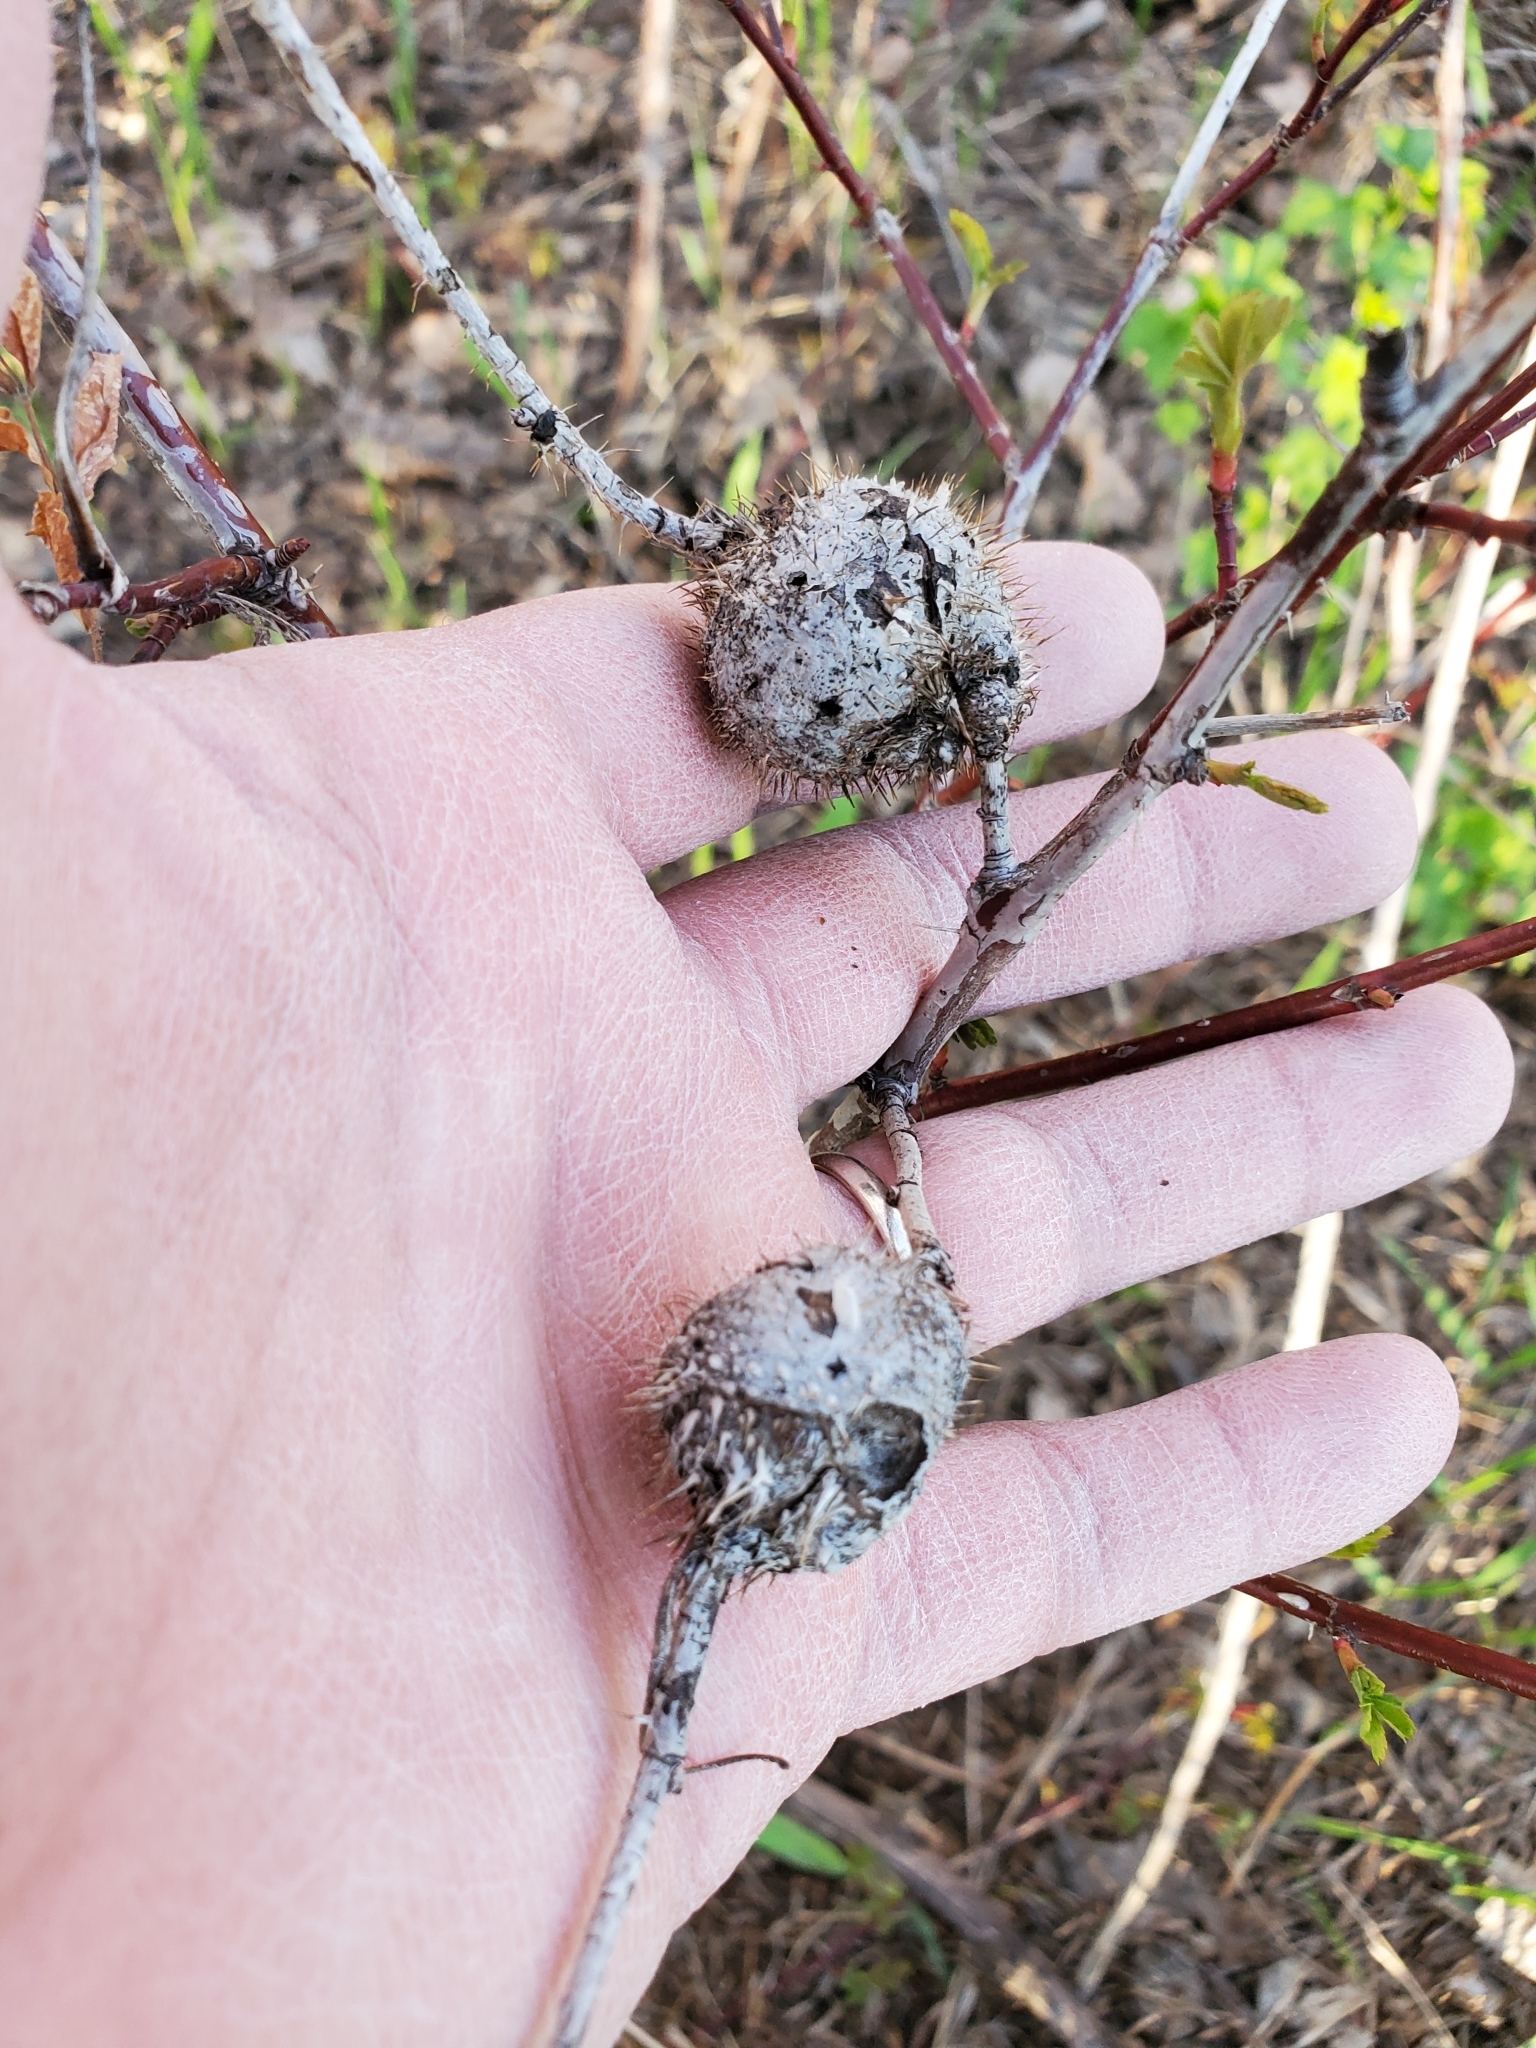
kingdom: Animalia
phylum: Arthropoda
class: Insecta
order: Hymenoptera
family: Cynipidae
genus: Diplolepis
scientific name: Diplolepis spinosa
